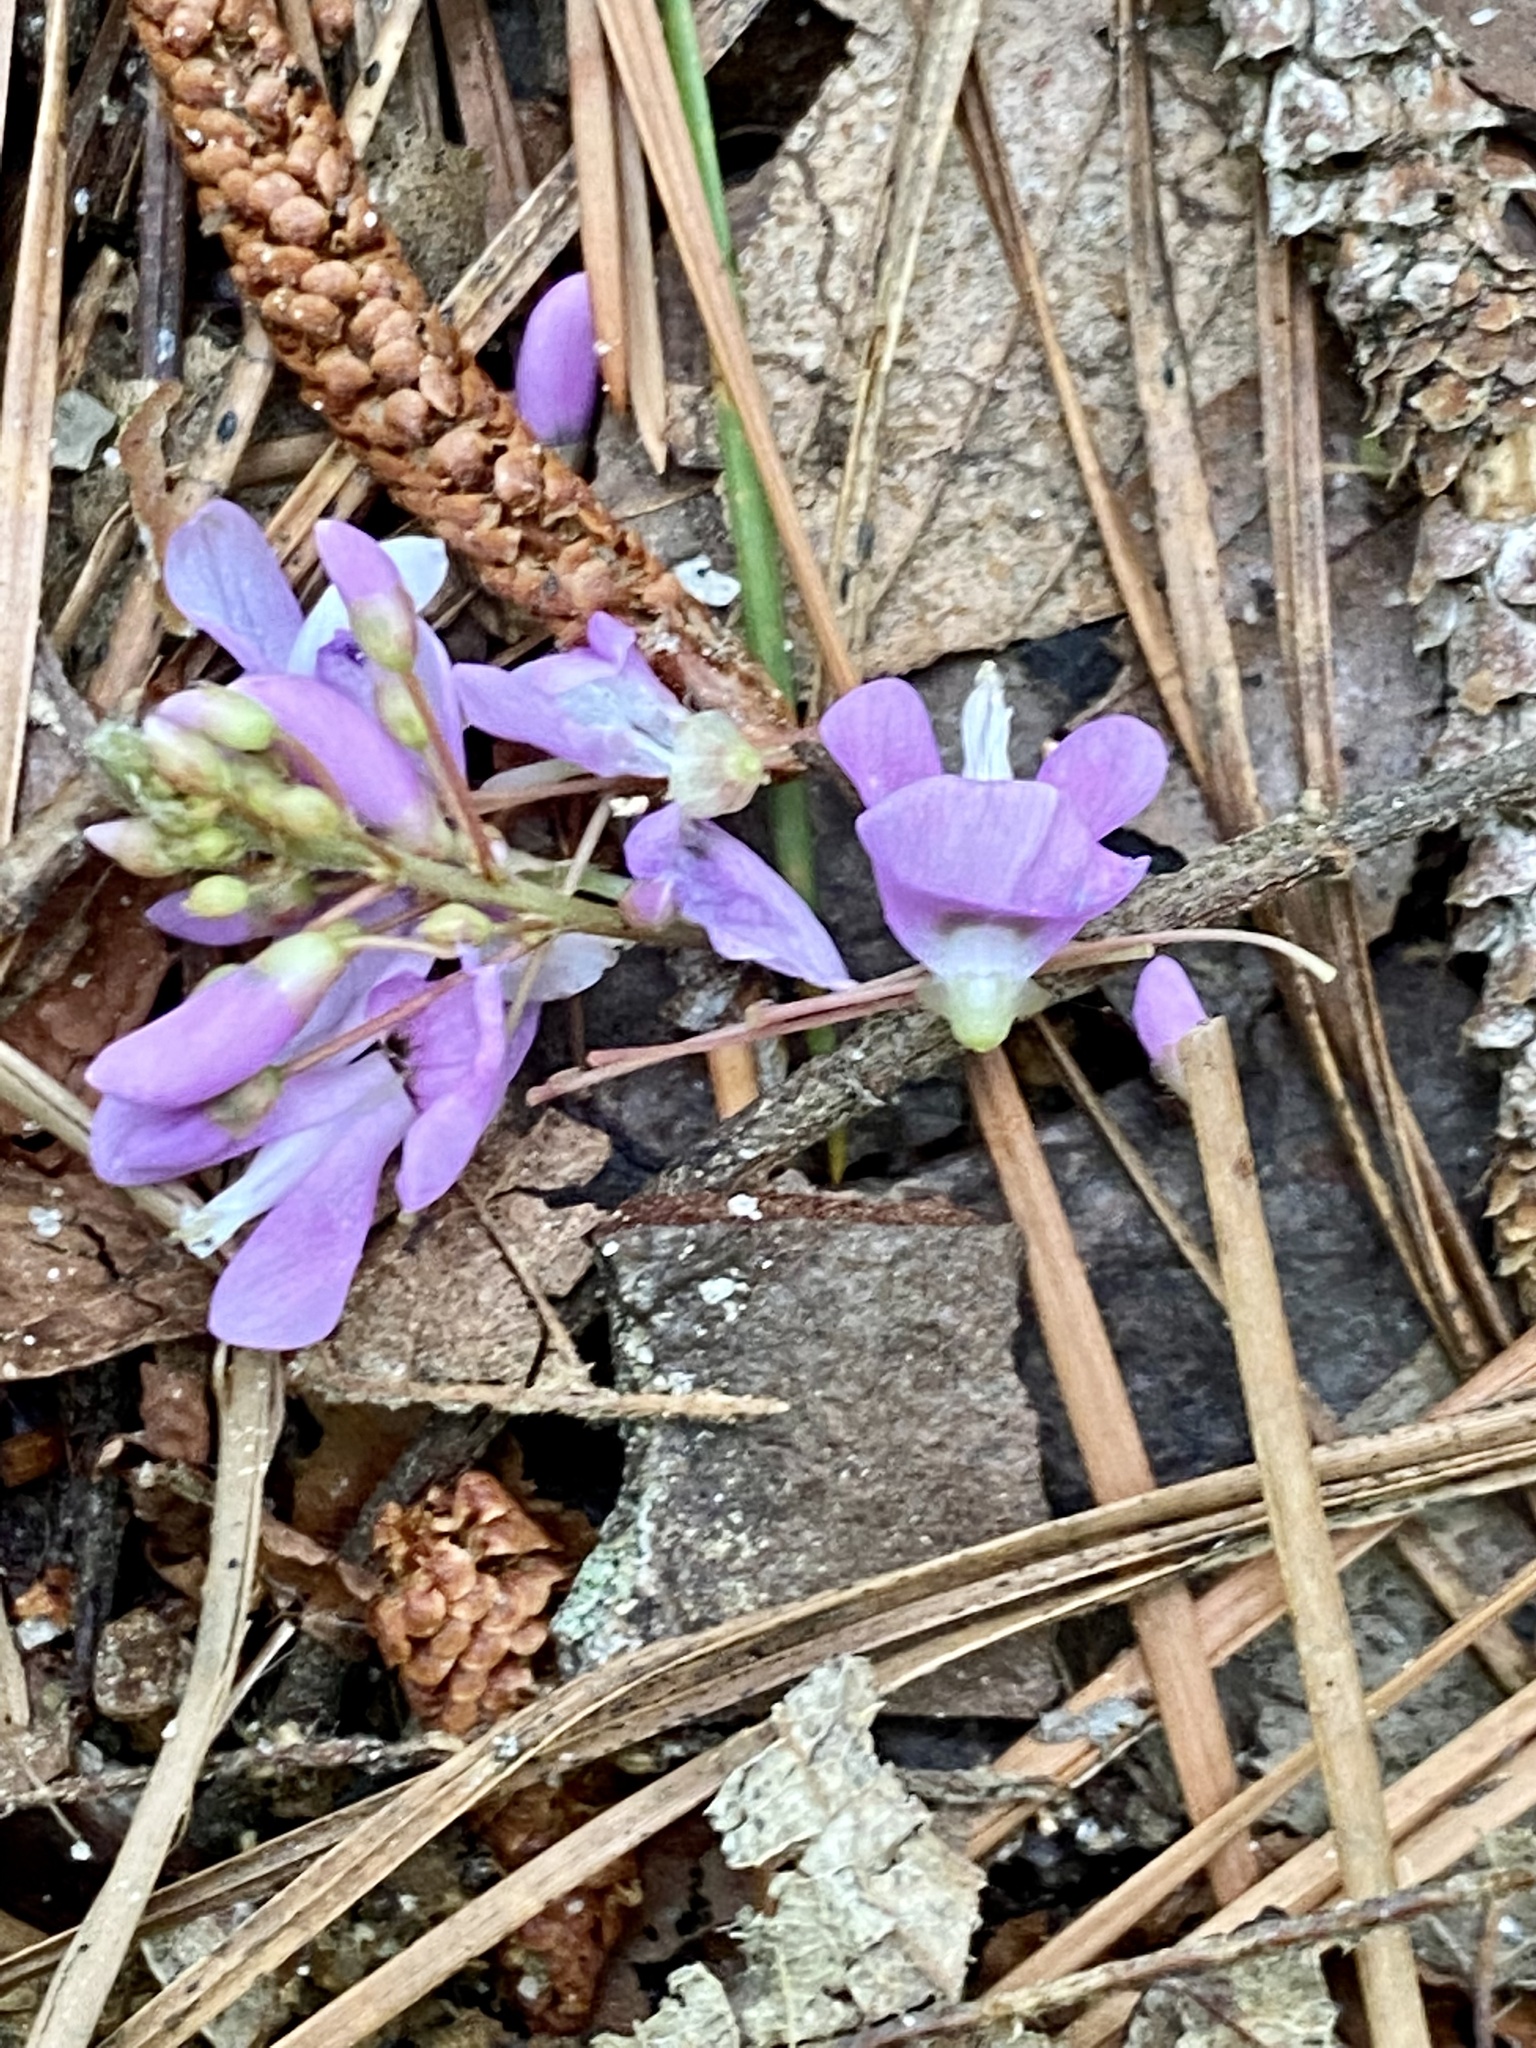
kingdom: Plantae
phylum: Tracheophyta
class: Magnoliopsida
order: Fabales
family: Fabaceae
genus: Hylodesmum
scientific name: Hylodesmum nudiflorum
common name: Bare-stemmed tick-trefoil
